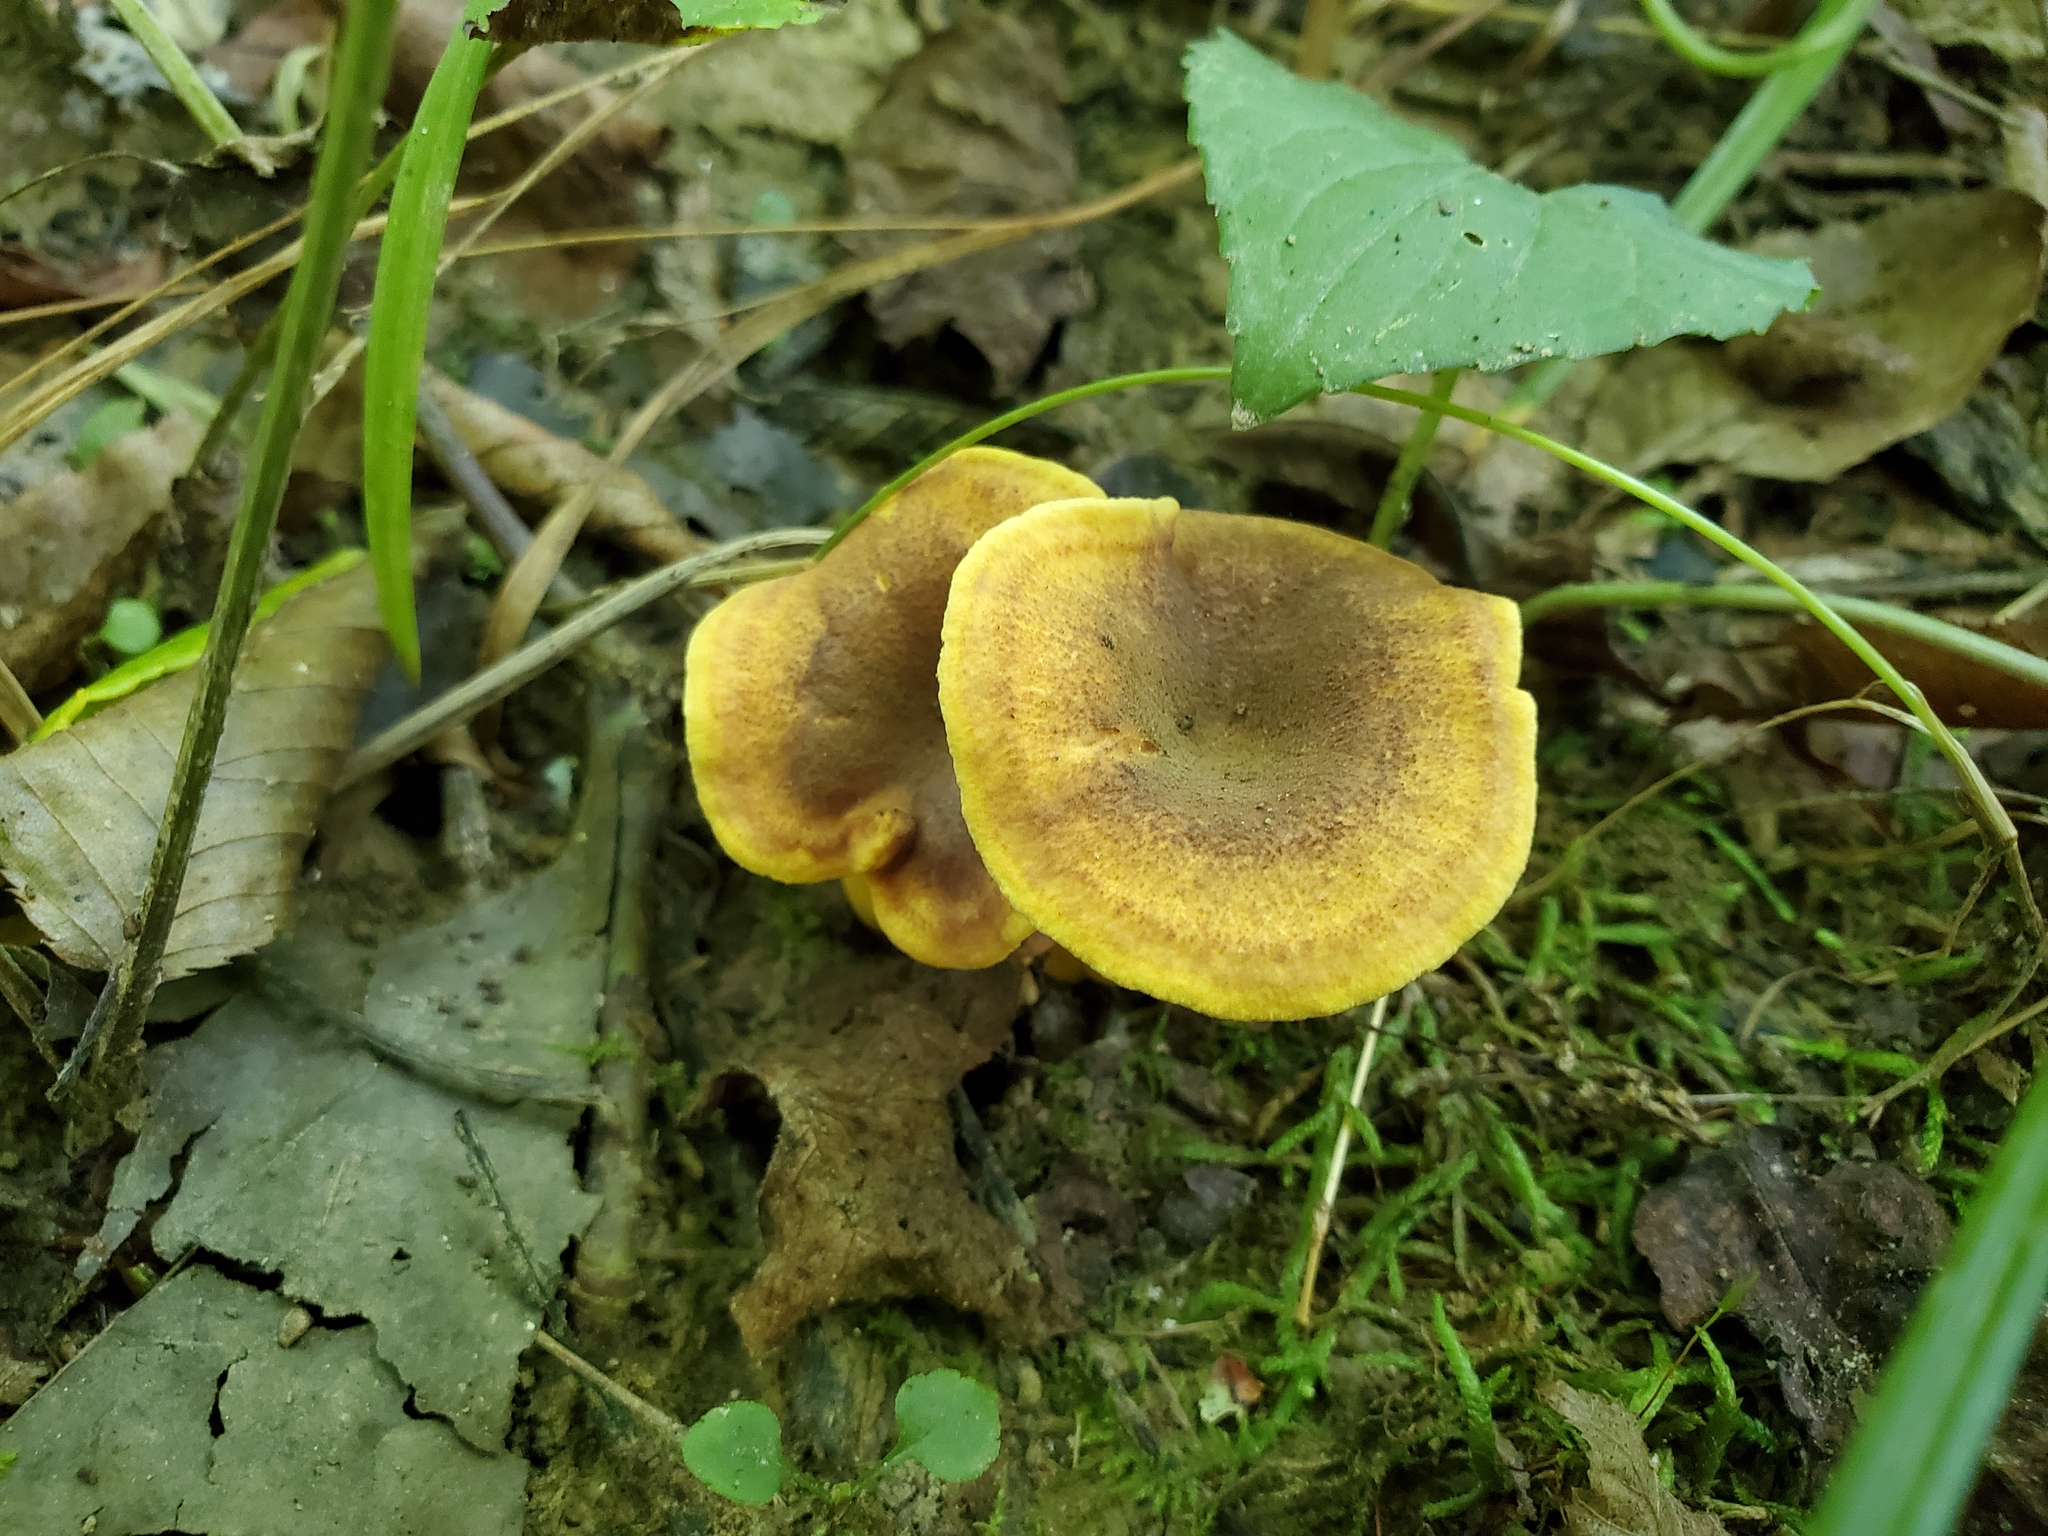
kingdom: Fungi
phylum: Basidiomycota
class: Agaricomycetes
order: Cantharellales
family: Hydnaceae
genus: Cantharellus
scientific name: Cantharellus appalachiensis
